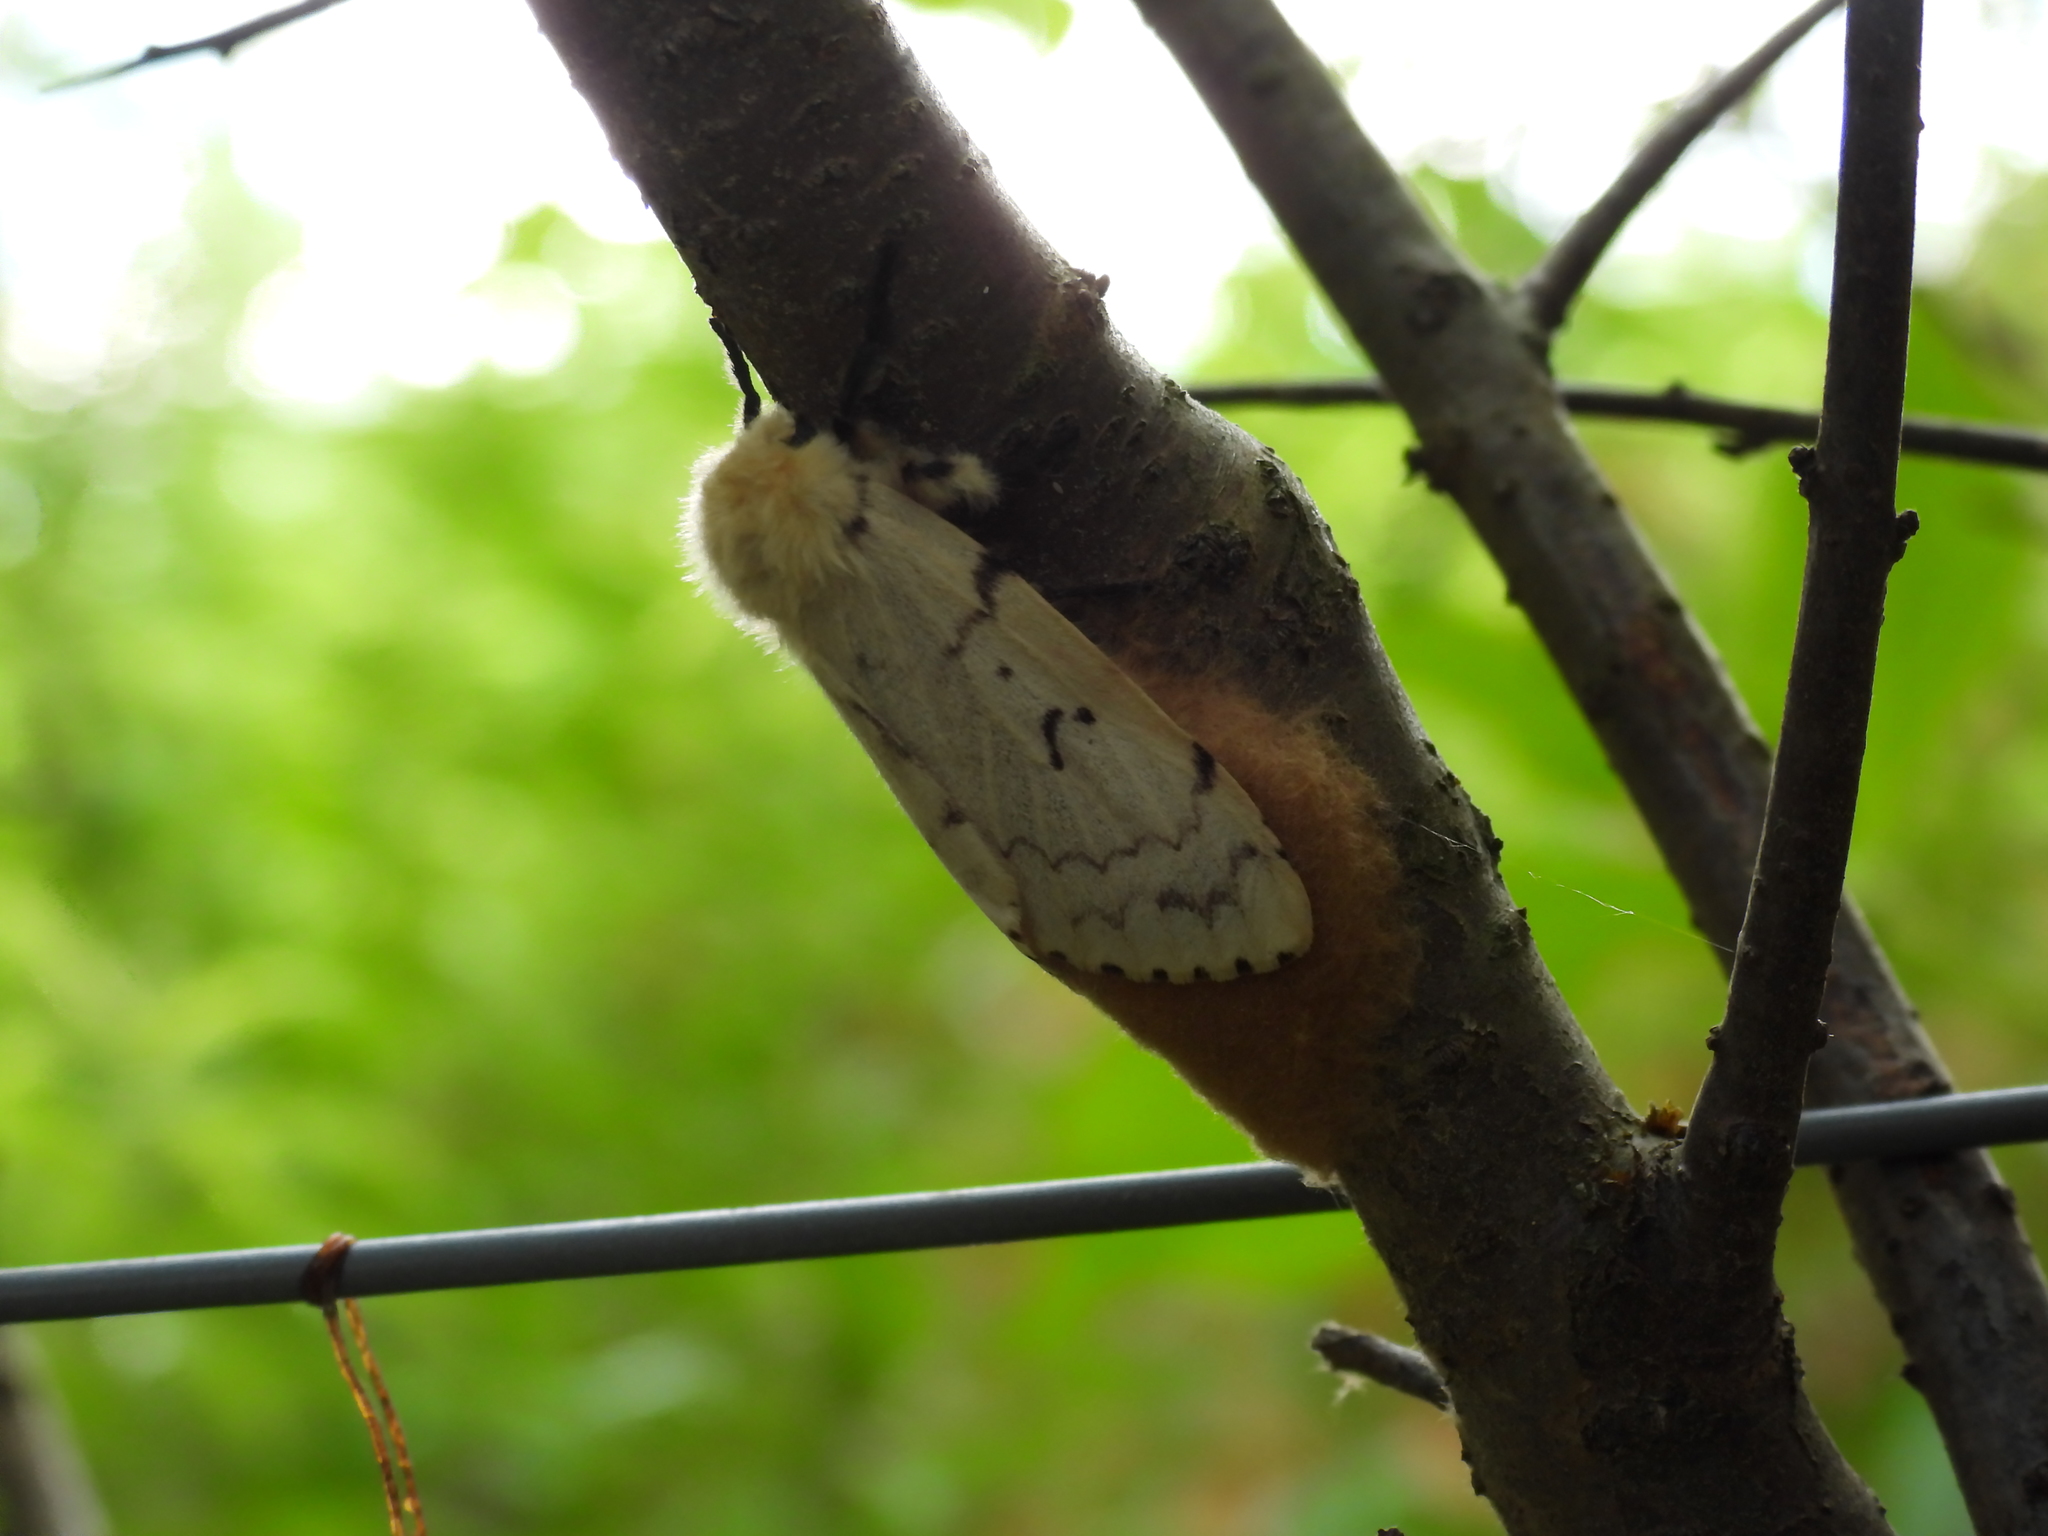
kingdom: Animalia
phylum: Arthropoda
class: Insecta
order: Lepidoptera
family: Erebidae
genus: Lymantria
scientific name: Lymantria dispar
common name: Gypsy moth
